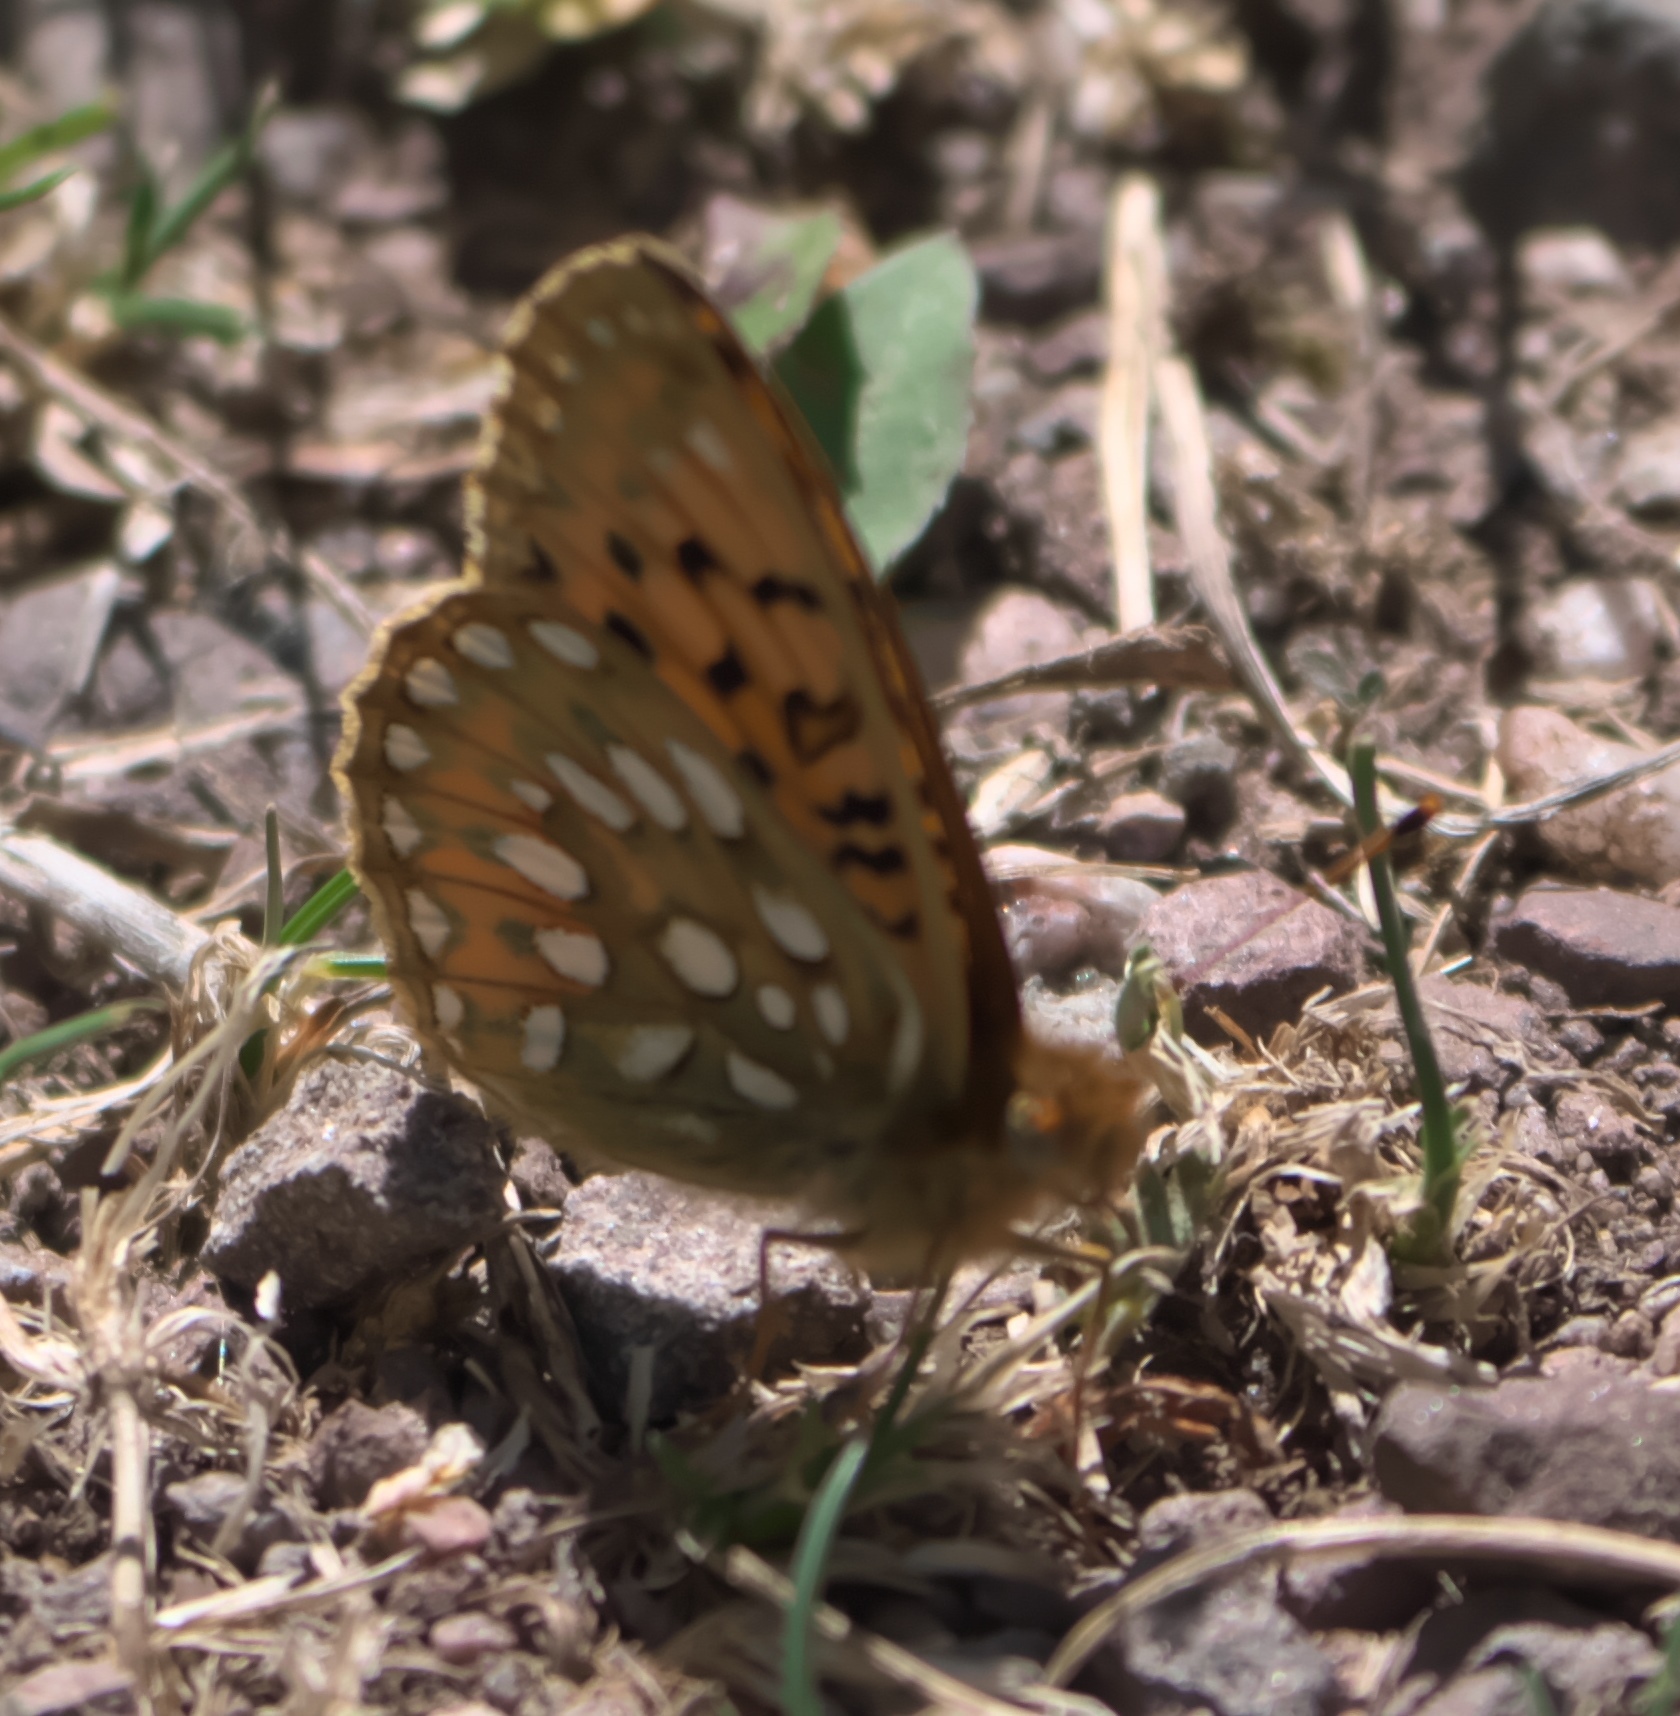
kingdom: Animalia
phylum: Arthropoda
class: Insecta
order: Lepidoptera
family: Nymphalidae
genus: Speyeria
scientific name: Speyeria mormonia
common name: Mormon fritillary
